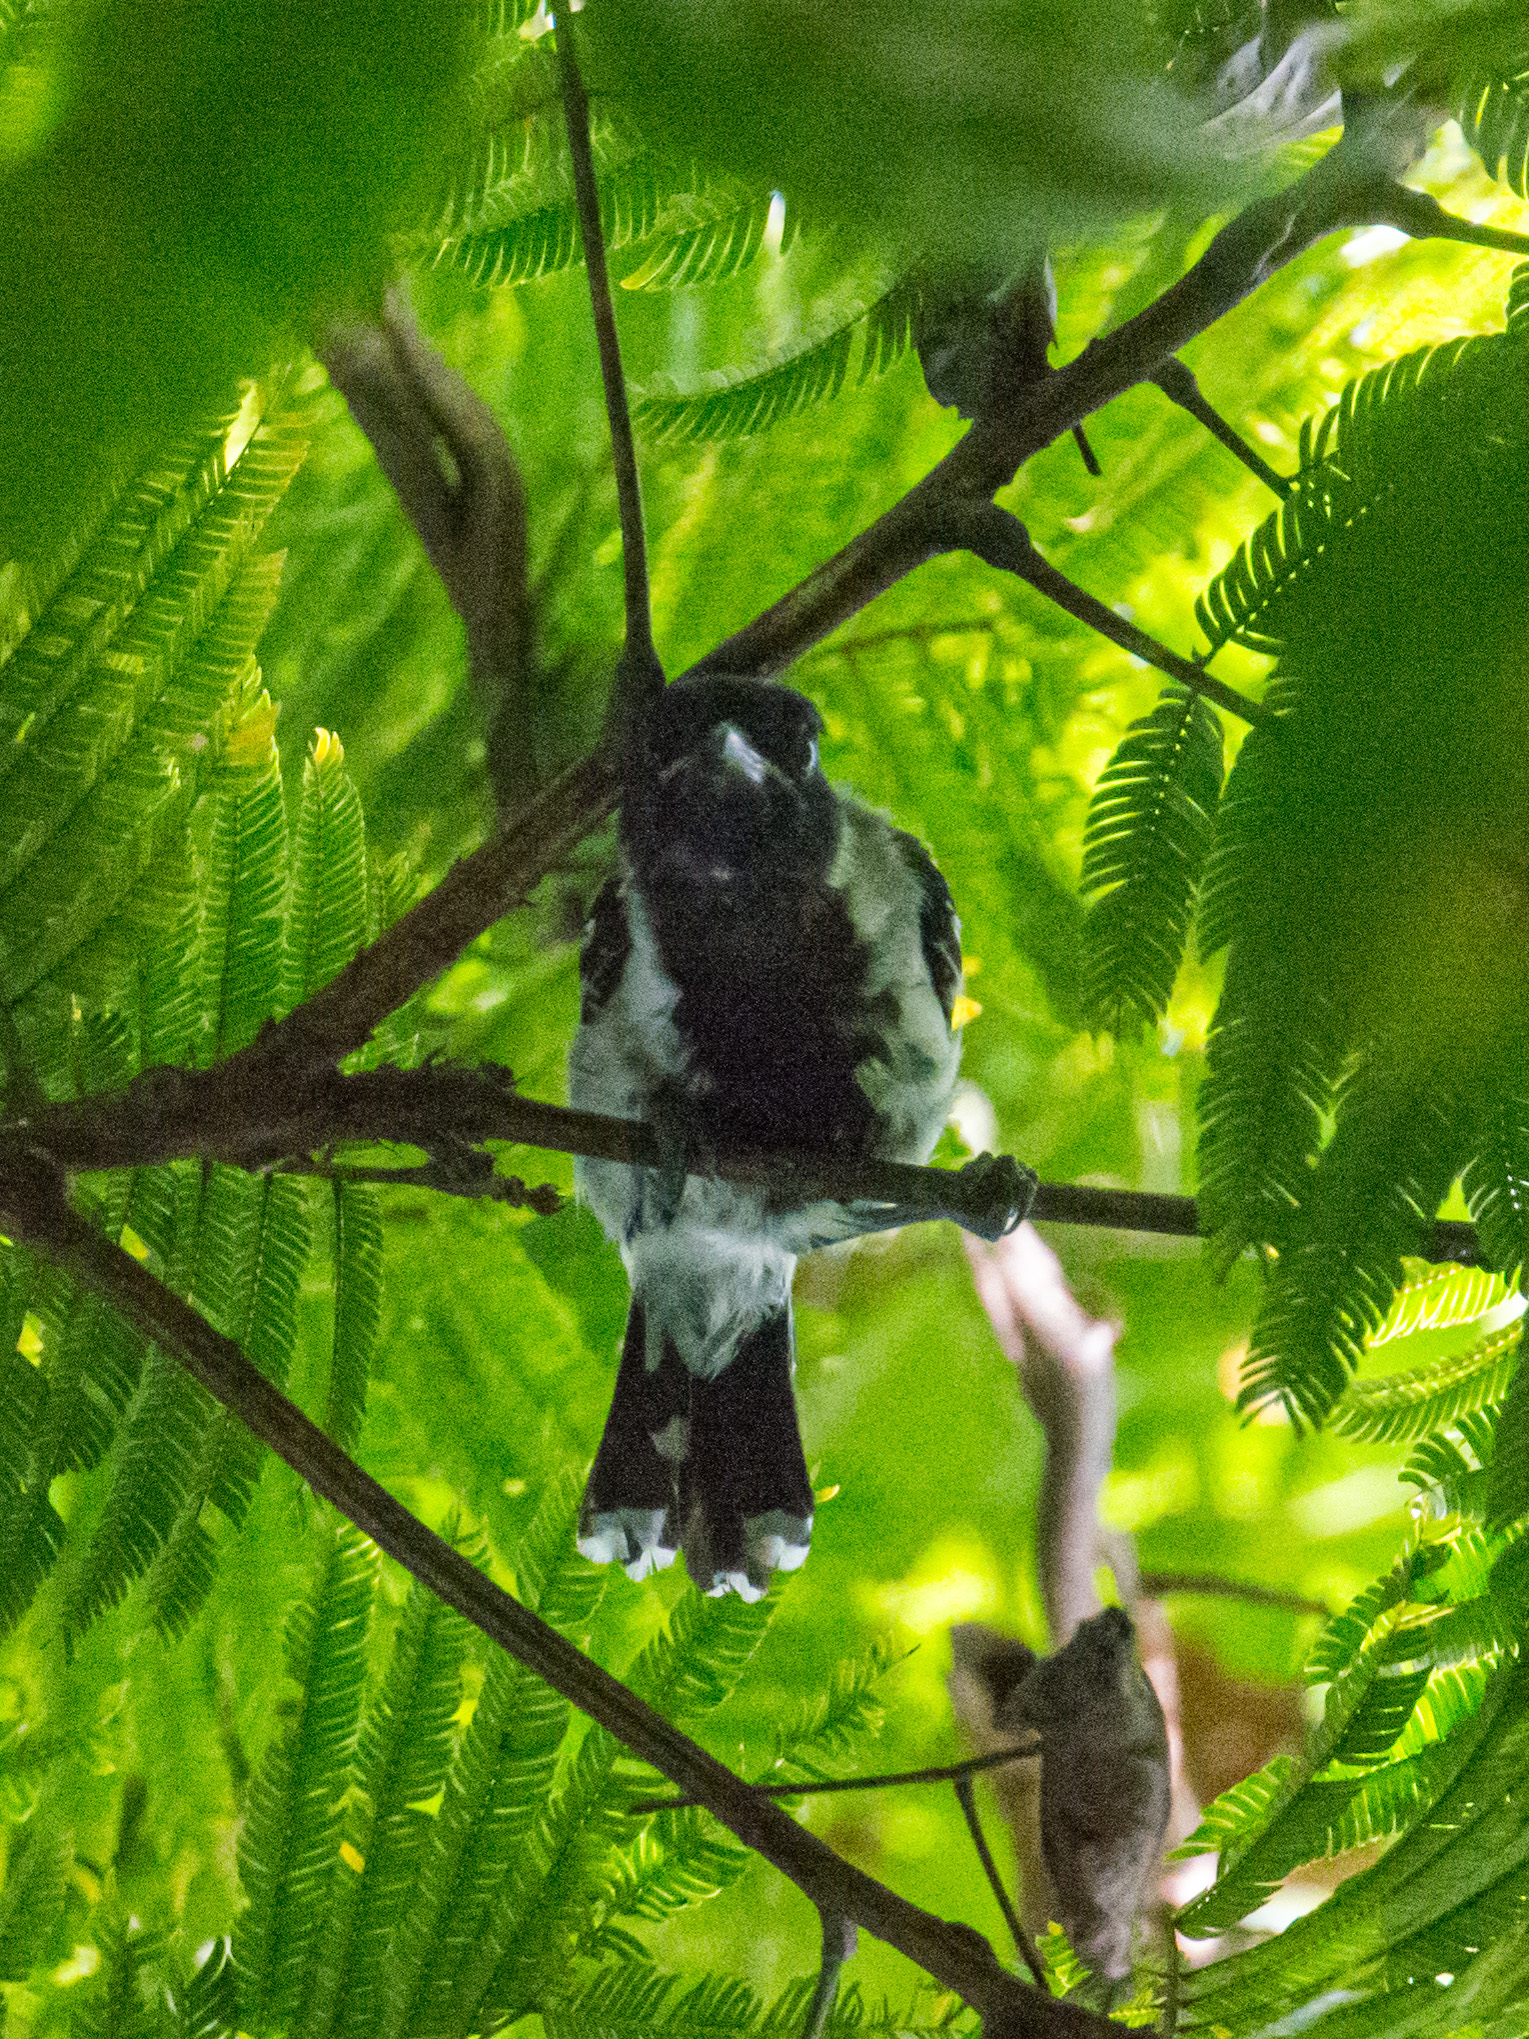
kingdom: Animalia
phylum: Chordata
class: Aves
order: Passeriformes
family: Thamnophilidae
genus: Sakesphorus
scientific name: Sakesphorus canadensis
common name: Black-crested antshrike
